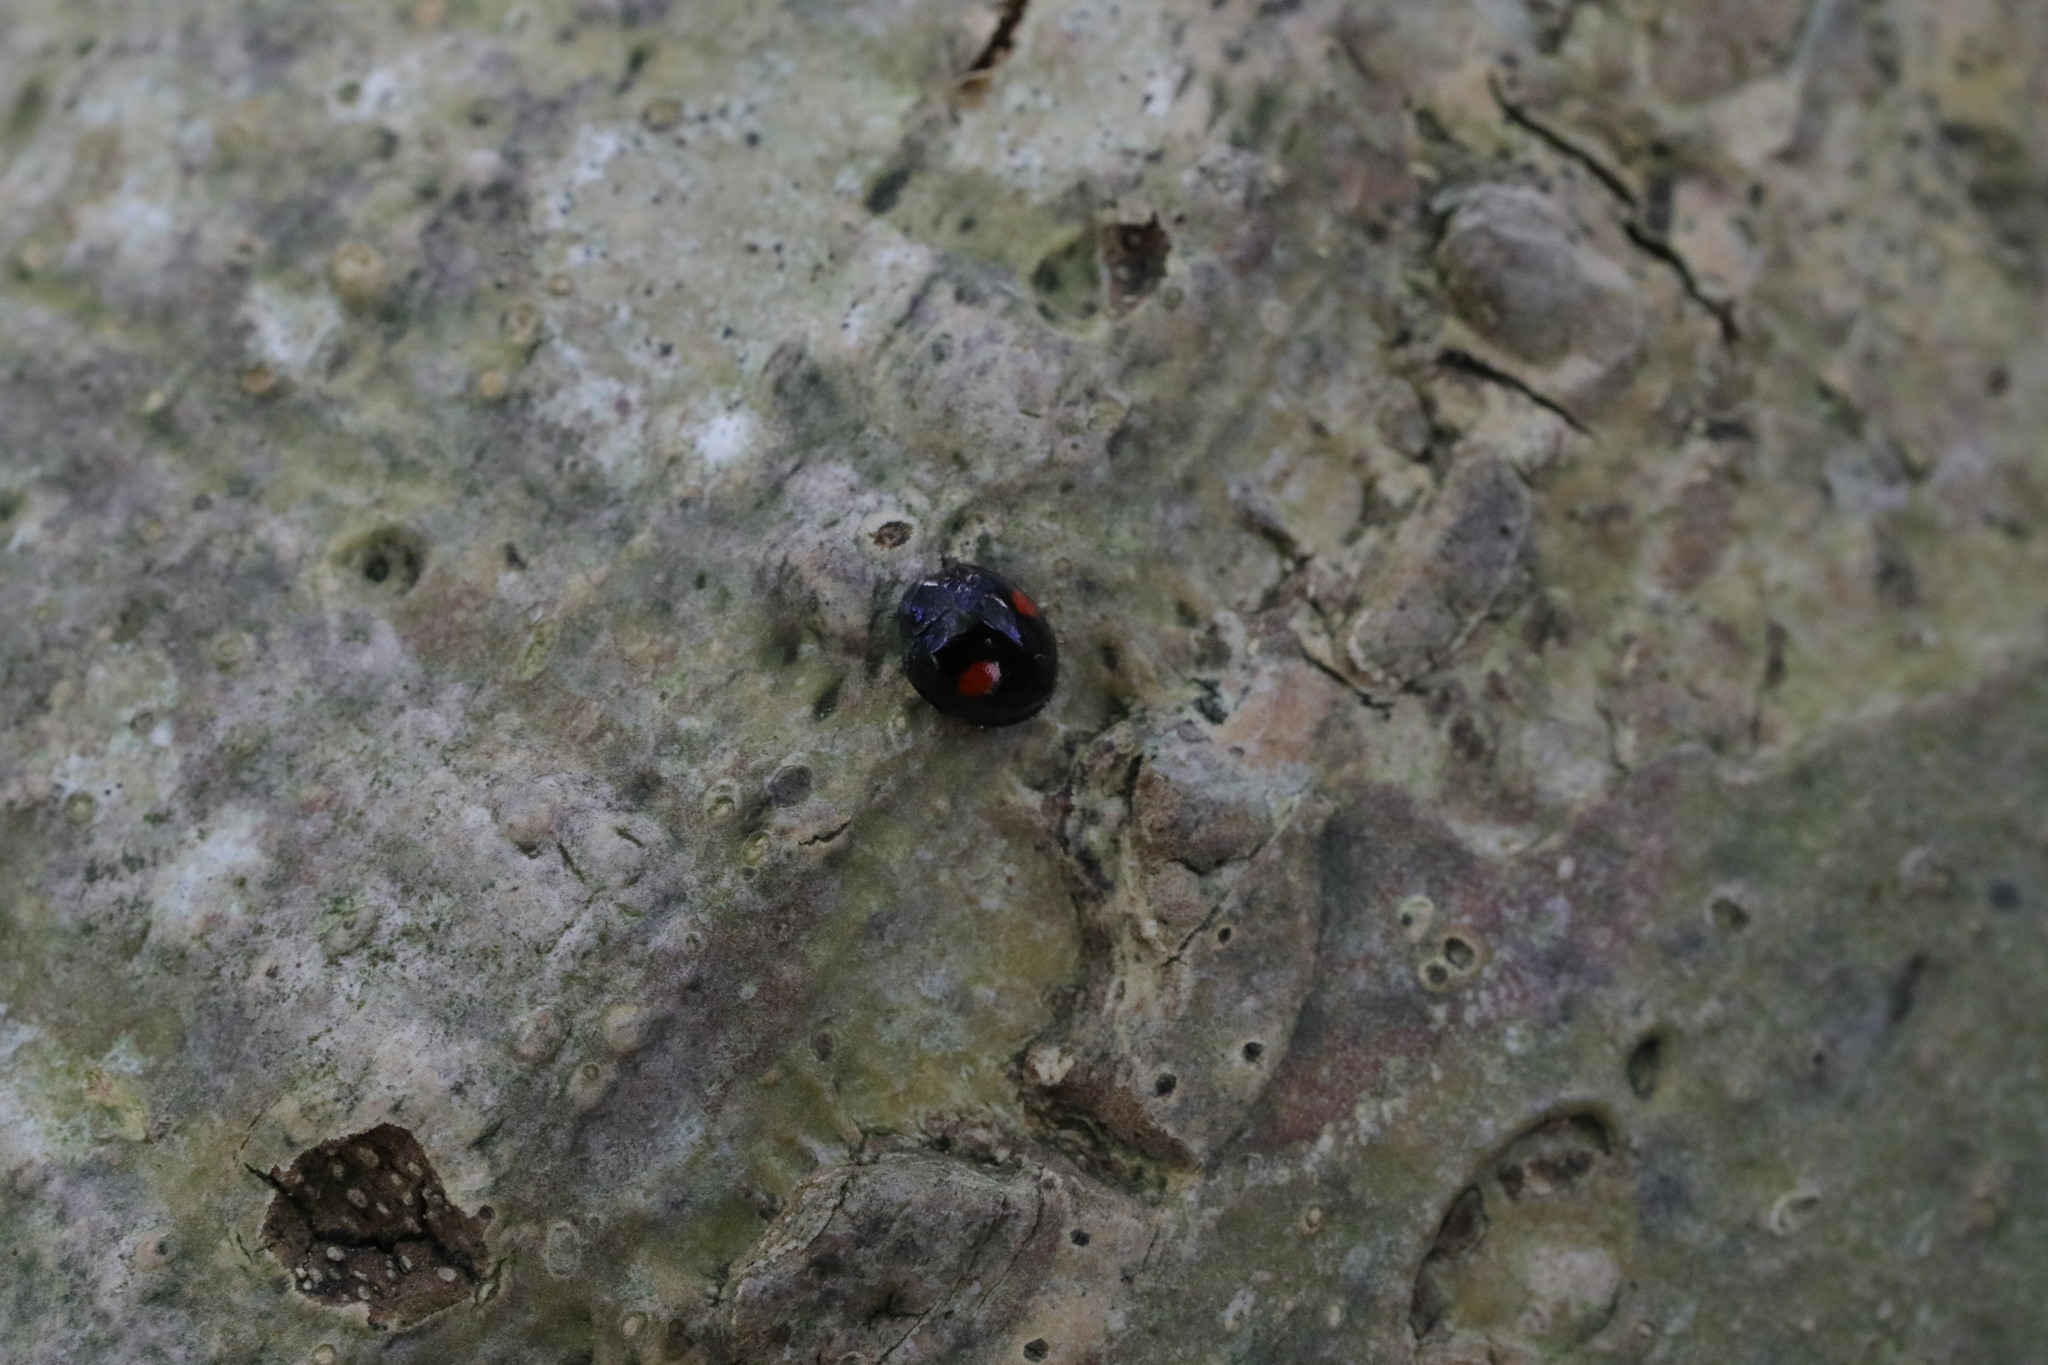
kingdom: Animalia
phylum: Arthropoda
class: Insecta
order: Coleoptera
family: Coccinellidae
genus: Chilocorus
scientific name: Chilocorus renipustulatus
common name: Kidney-spot ladybird
